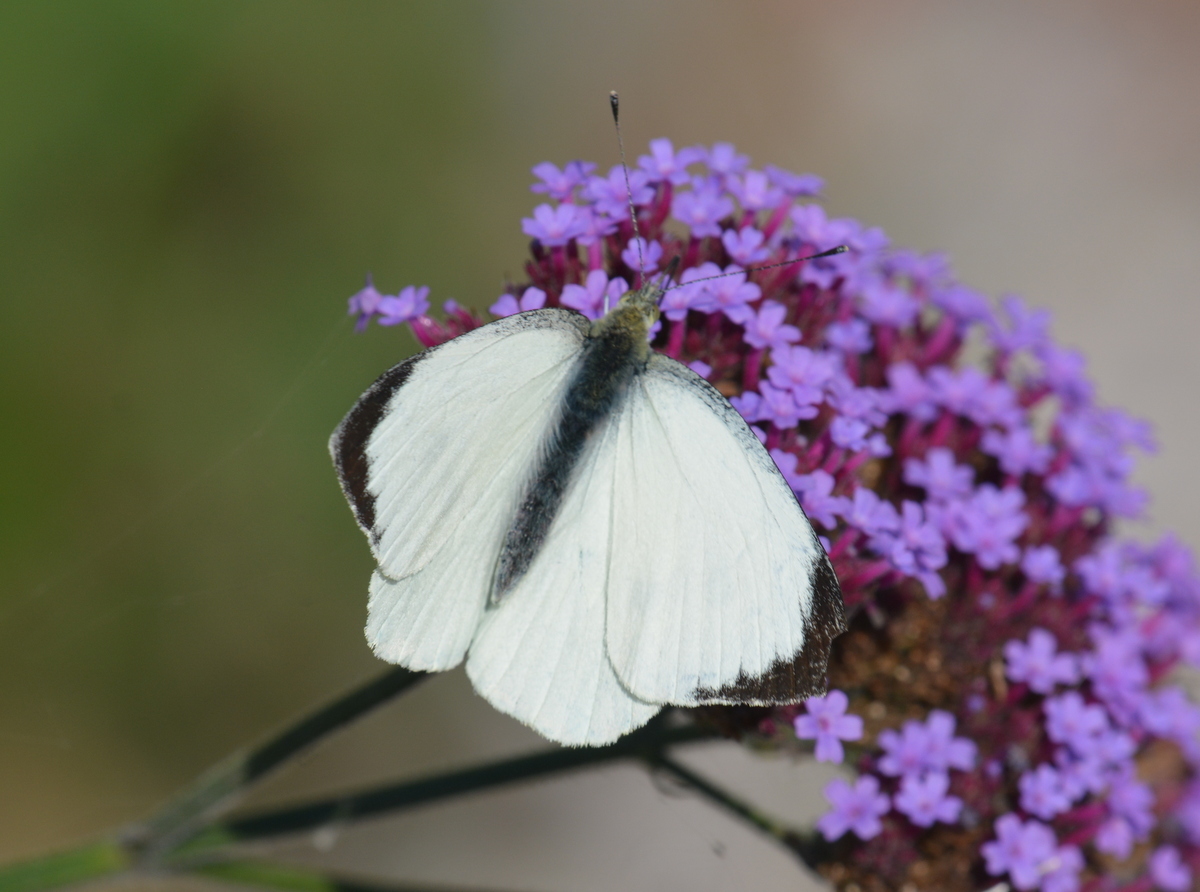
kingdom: Animalia
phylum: Arthropoda
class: Insecta
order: Lepidoptera
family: Pieridae
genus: Pieris
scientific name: Pieris brassicae
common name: Large white
